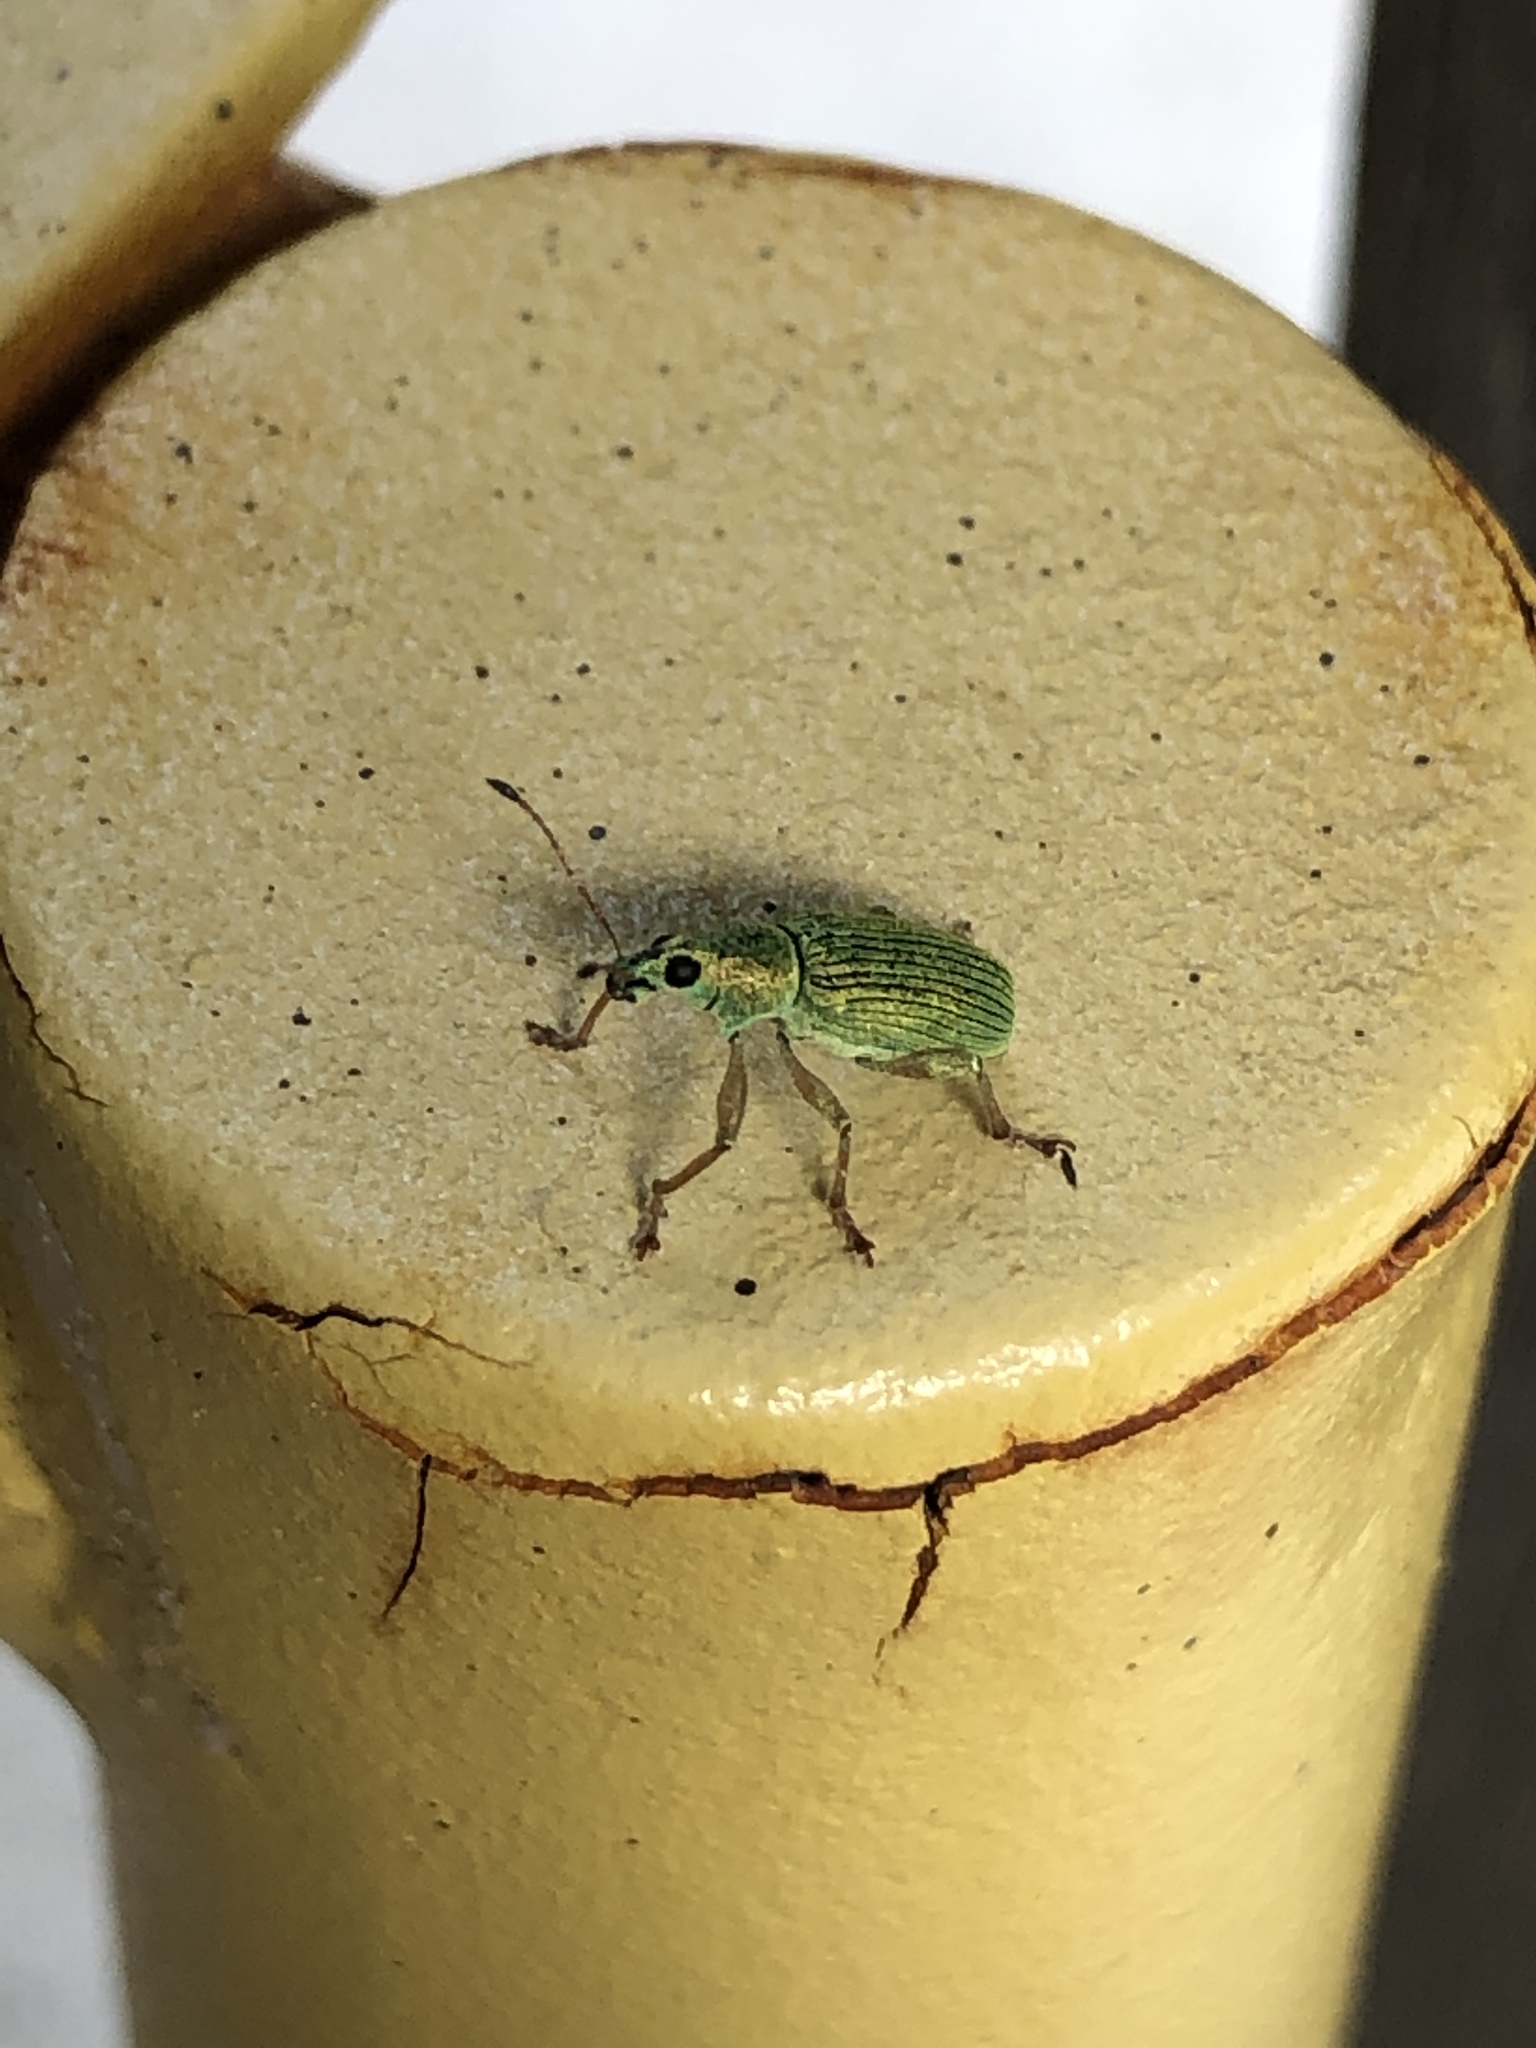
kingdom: Animalia
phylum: Arthropoda
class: Insecta
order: Coleoptera
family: Curculionidae
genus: Polydrusus
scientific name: Polydrusus formosus
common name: Weevil
